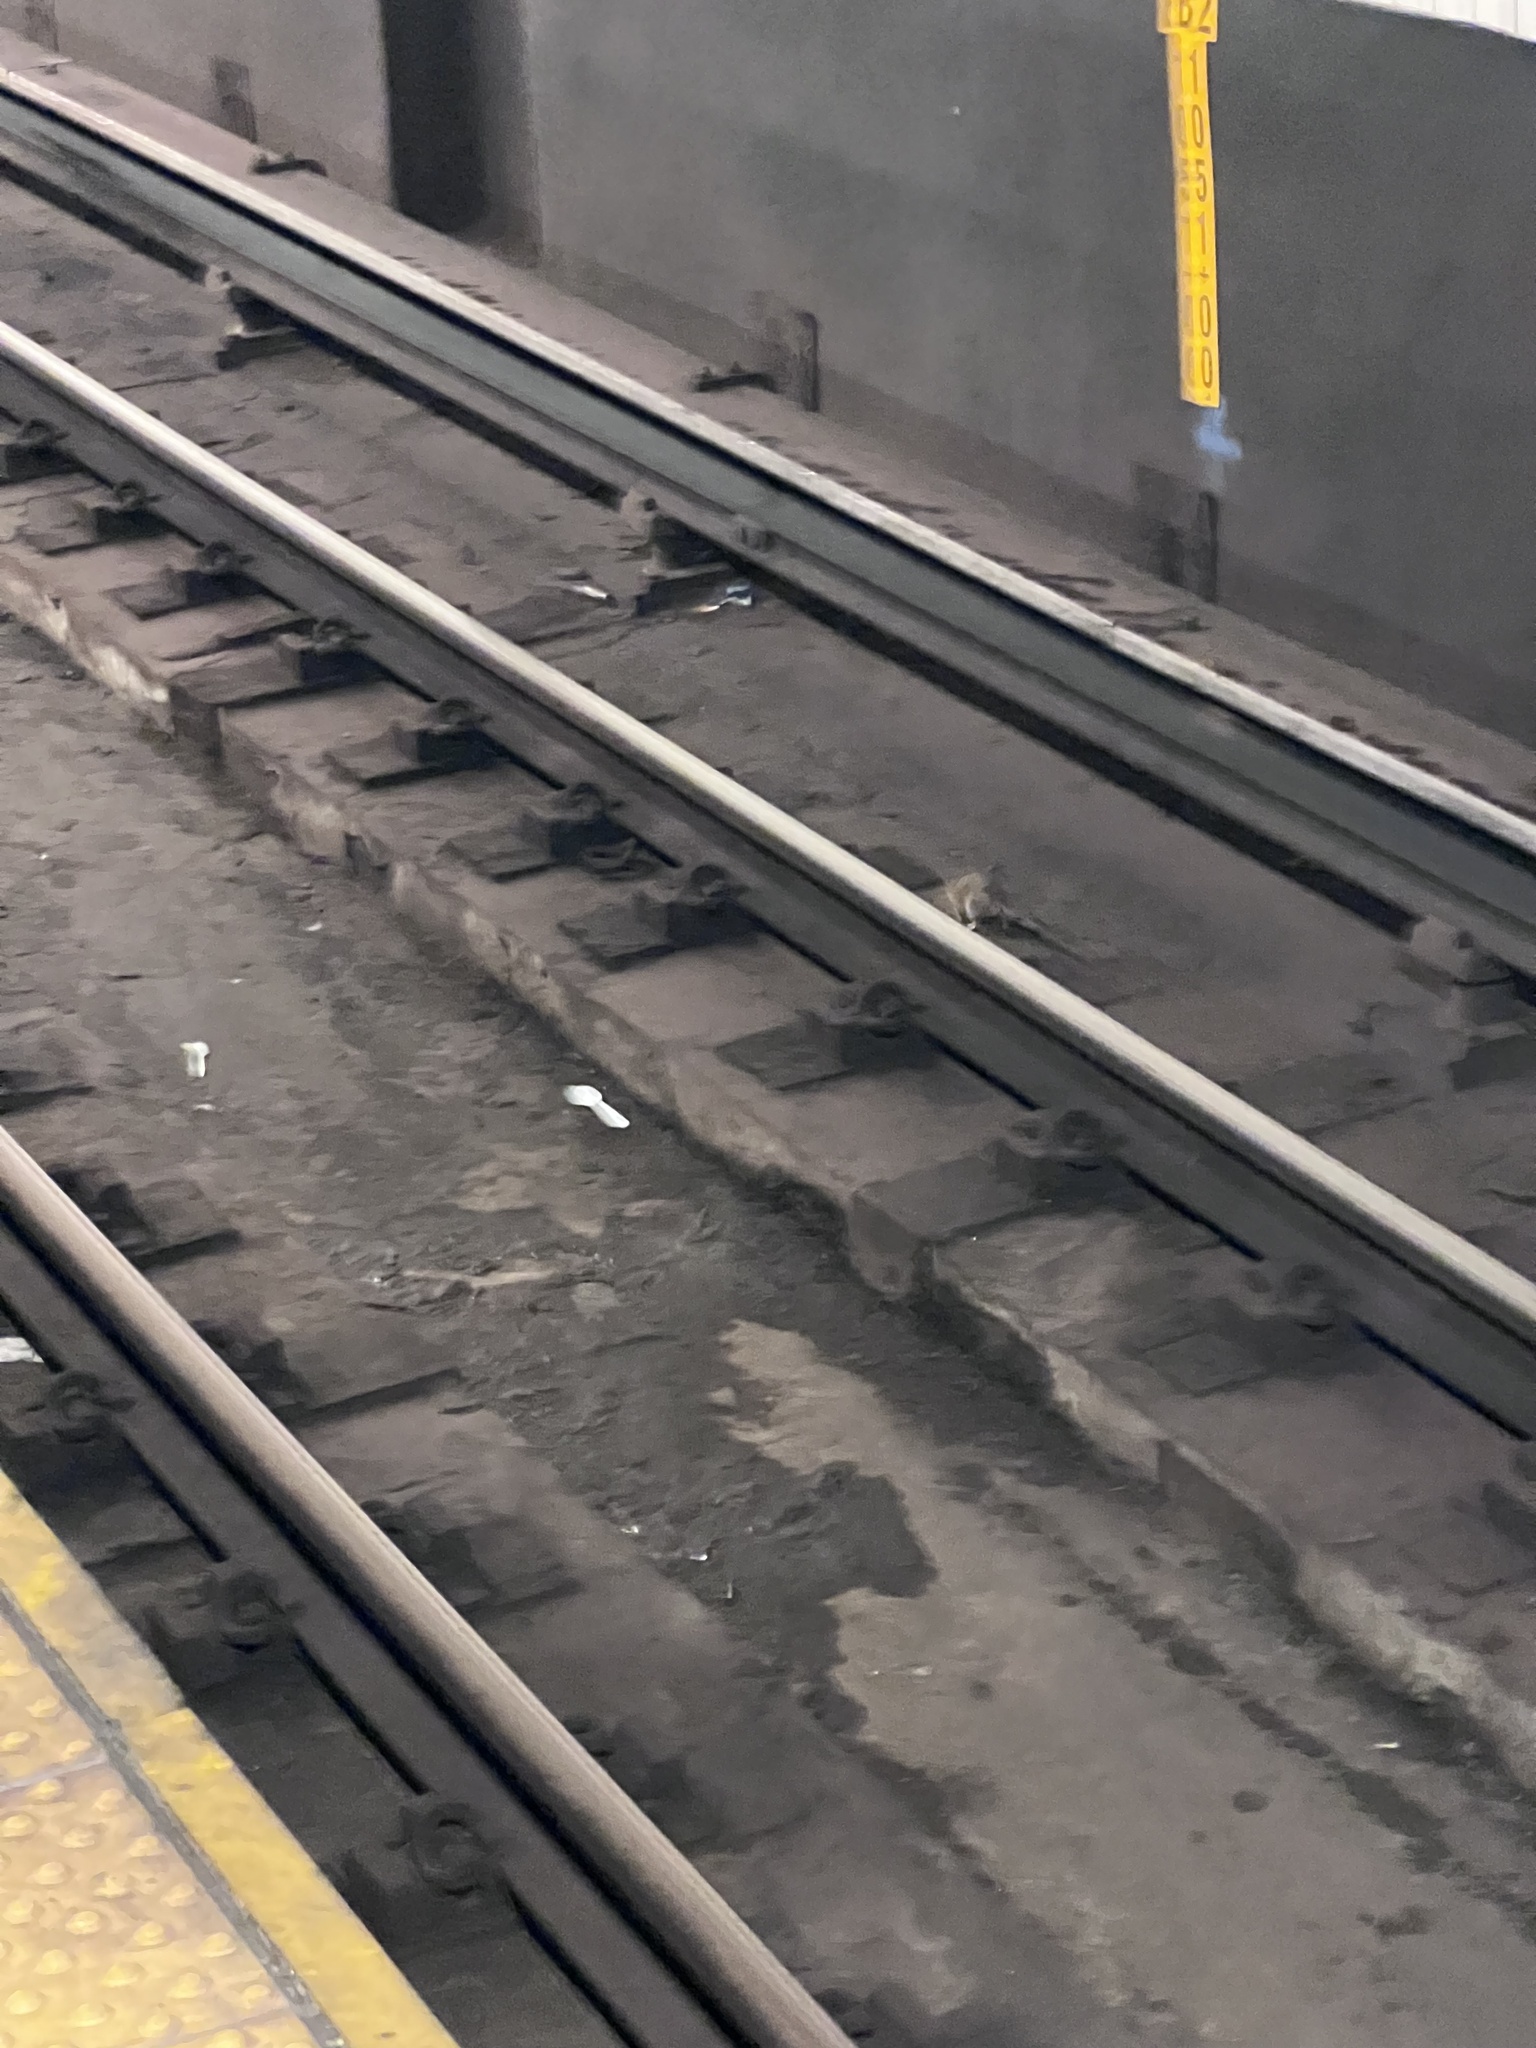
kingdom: Animalia
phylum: Chordata
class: Mammalia
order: Rodentia
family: Muridae
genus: Rattus
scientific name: Rattus norvegicus
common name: Brown rat
